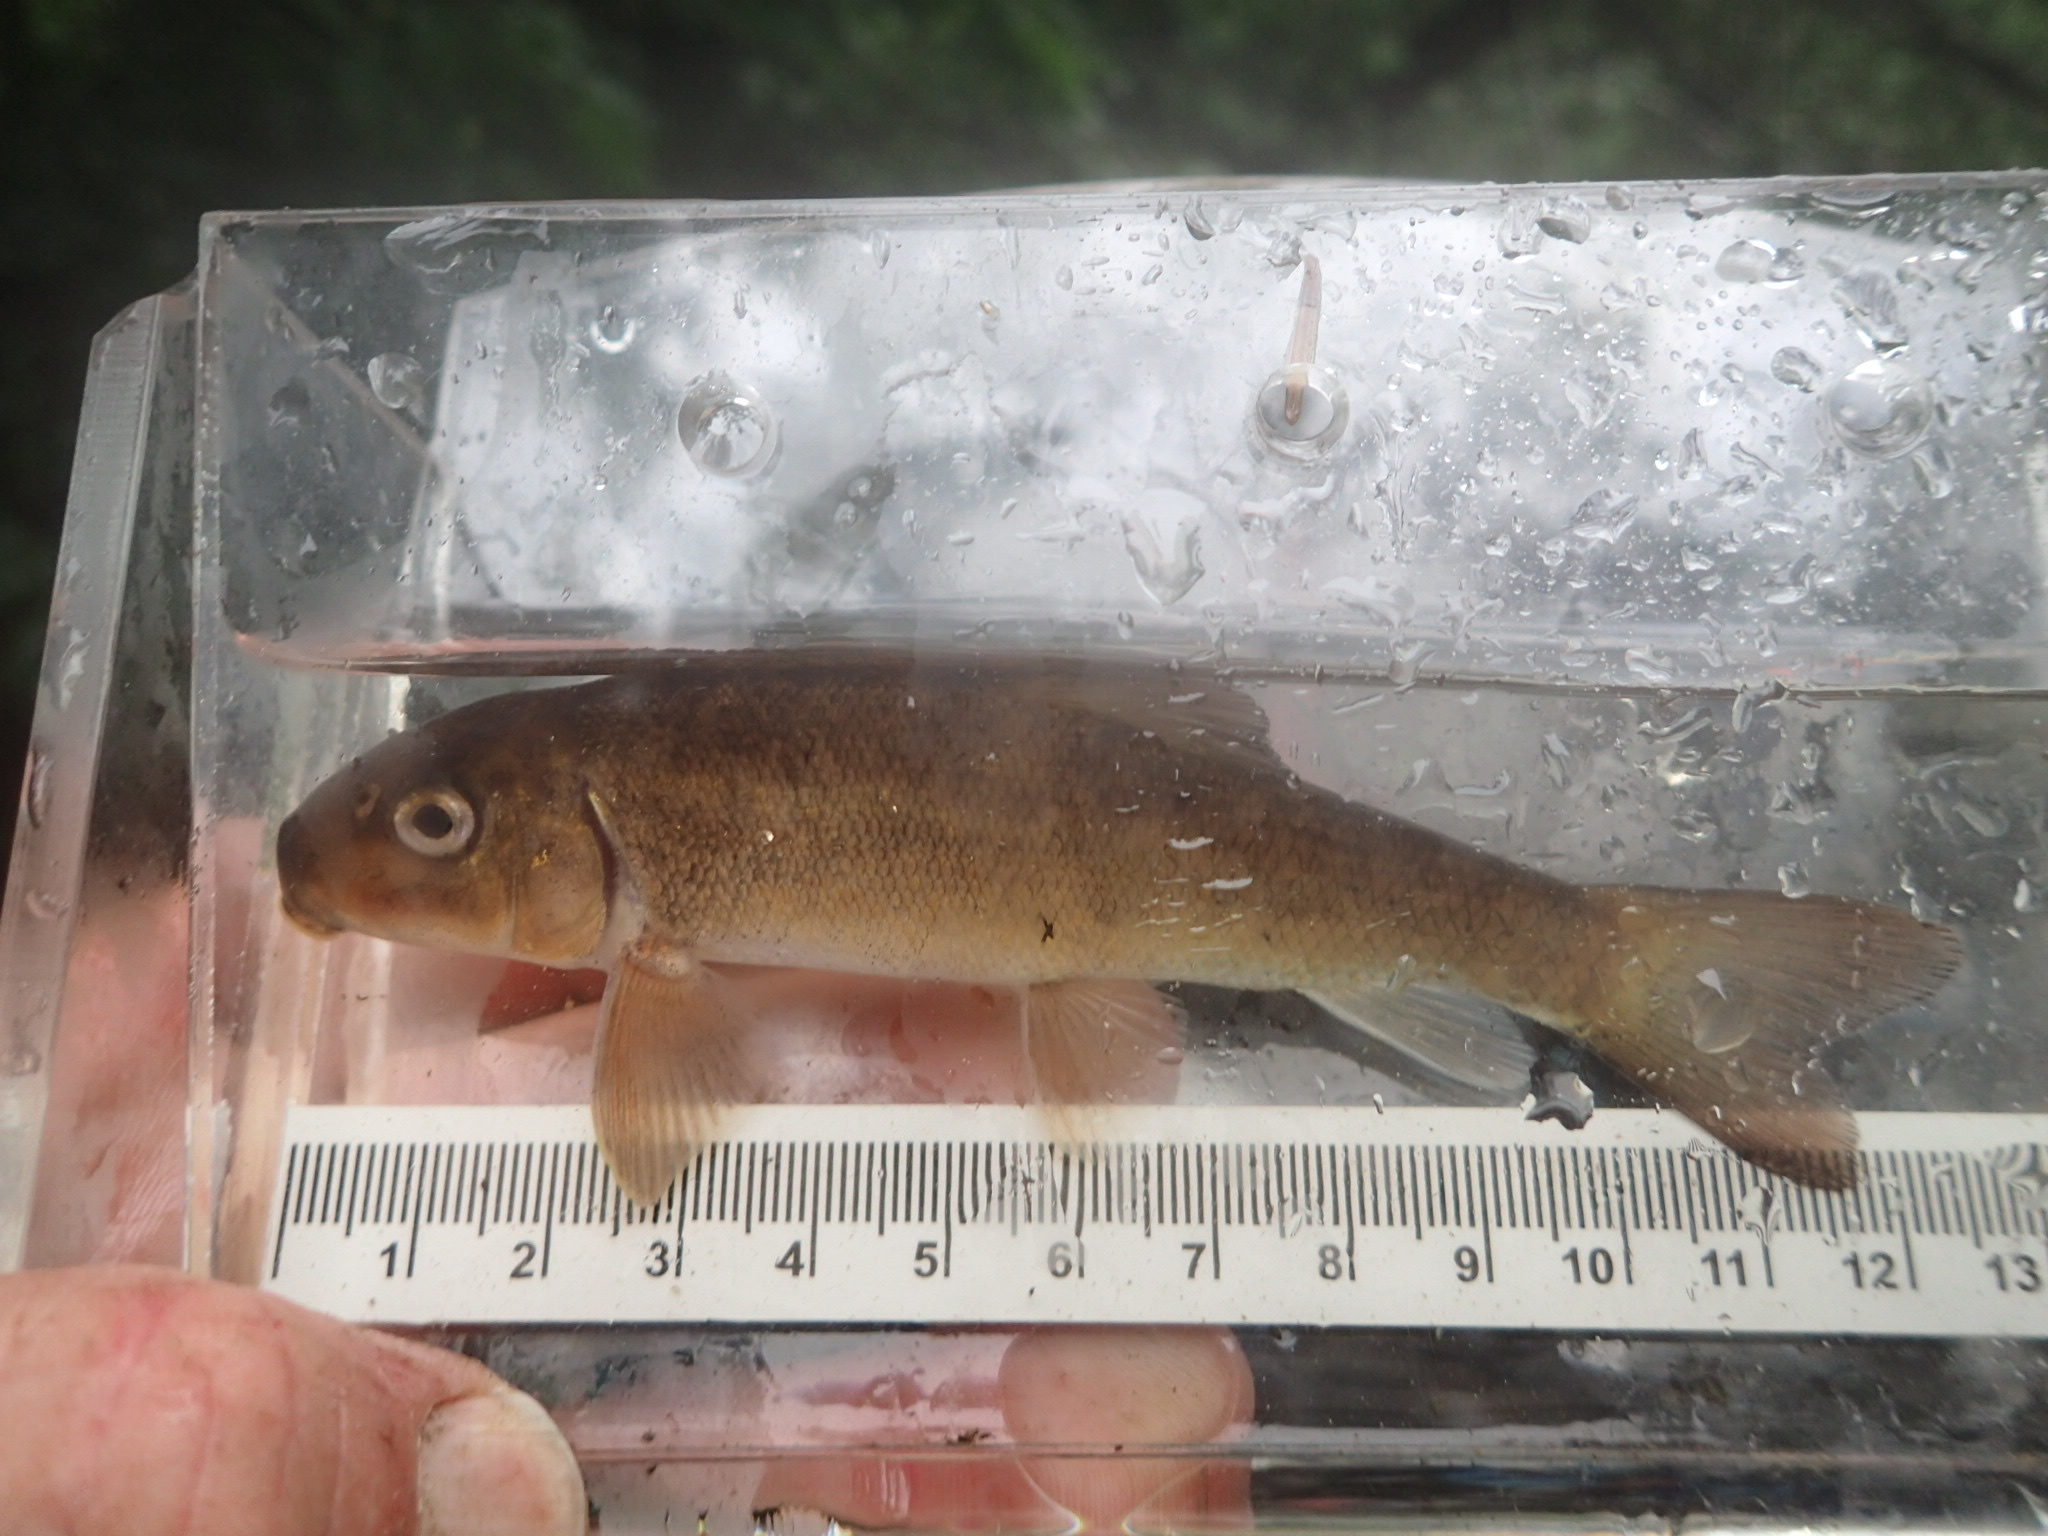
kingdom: Animalia
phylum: Chordata
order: Cypriniformes
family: Catostomidae
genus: Catostomus
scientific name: Catostomus commersonii
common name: White sucker
